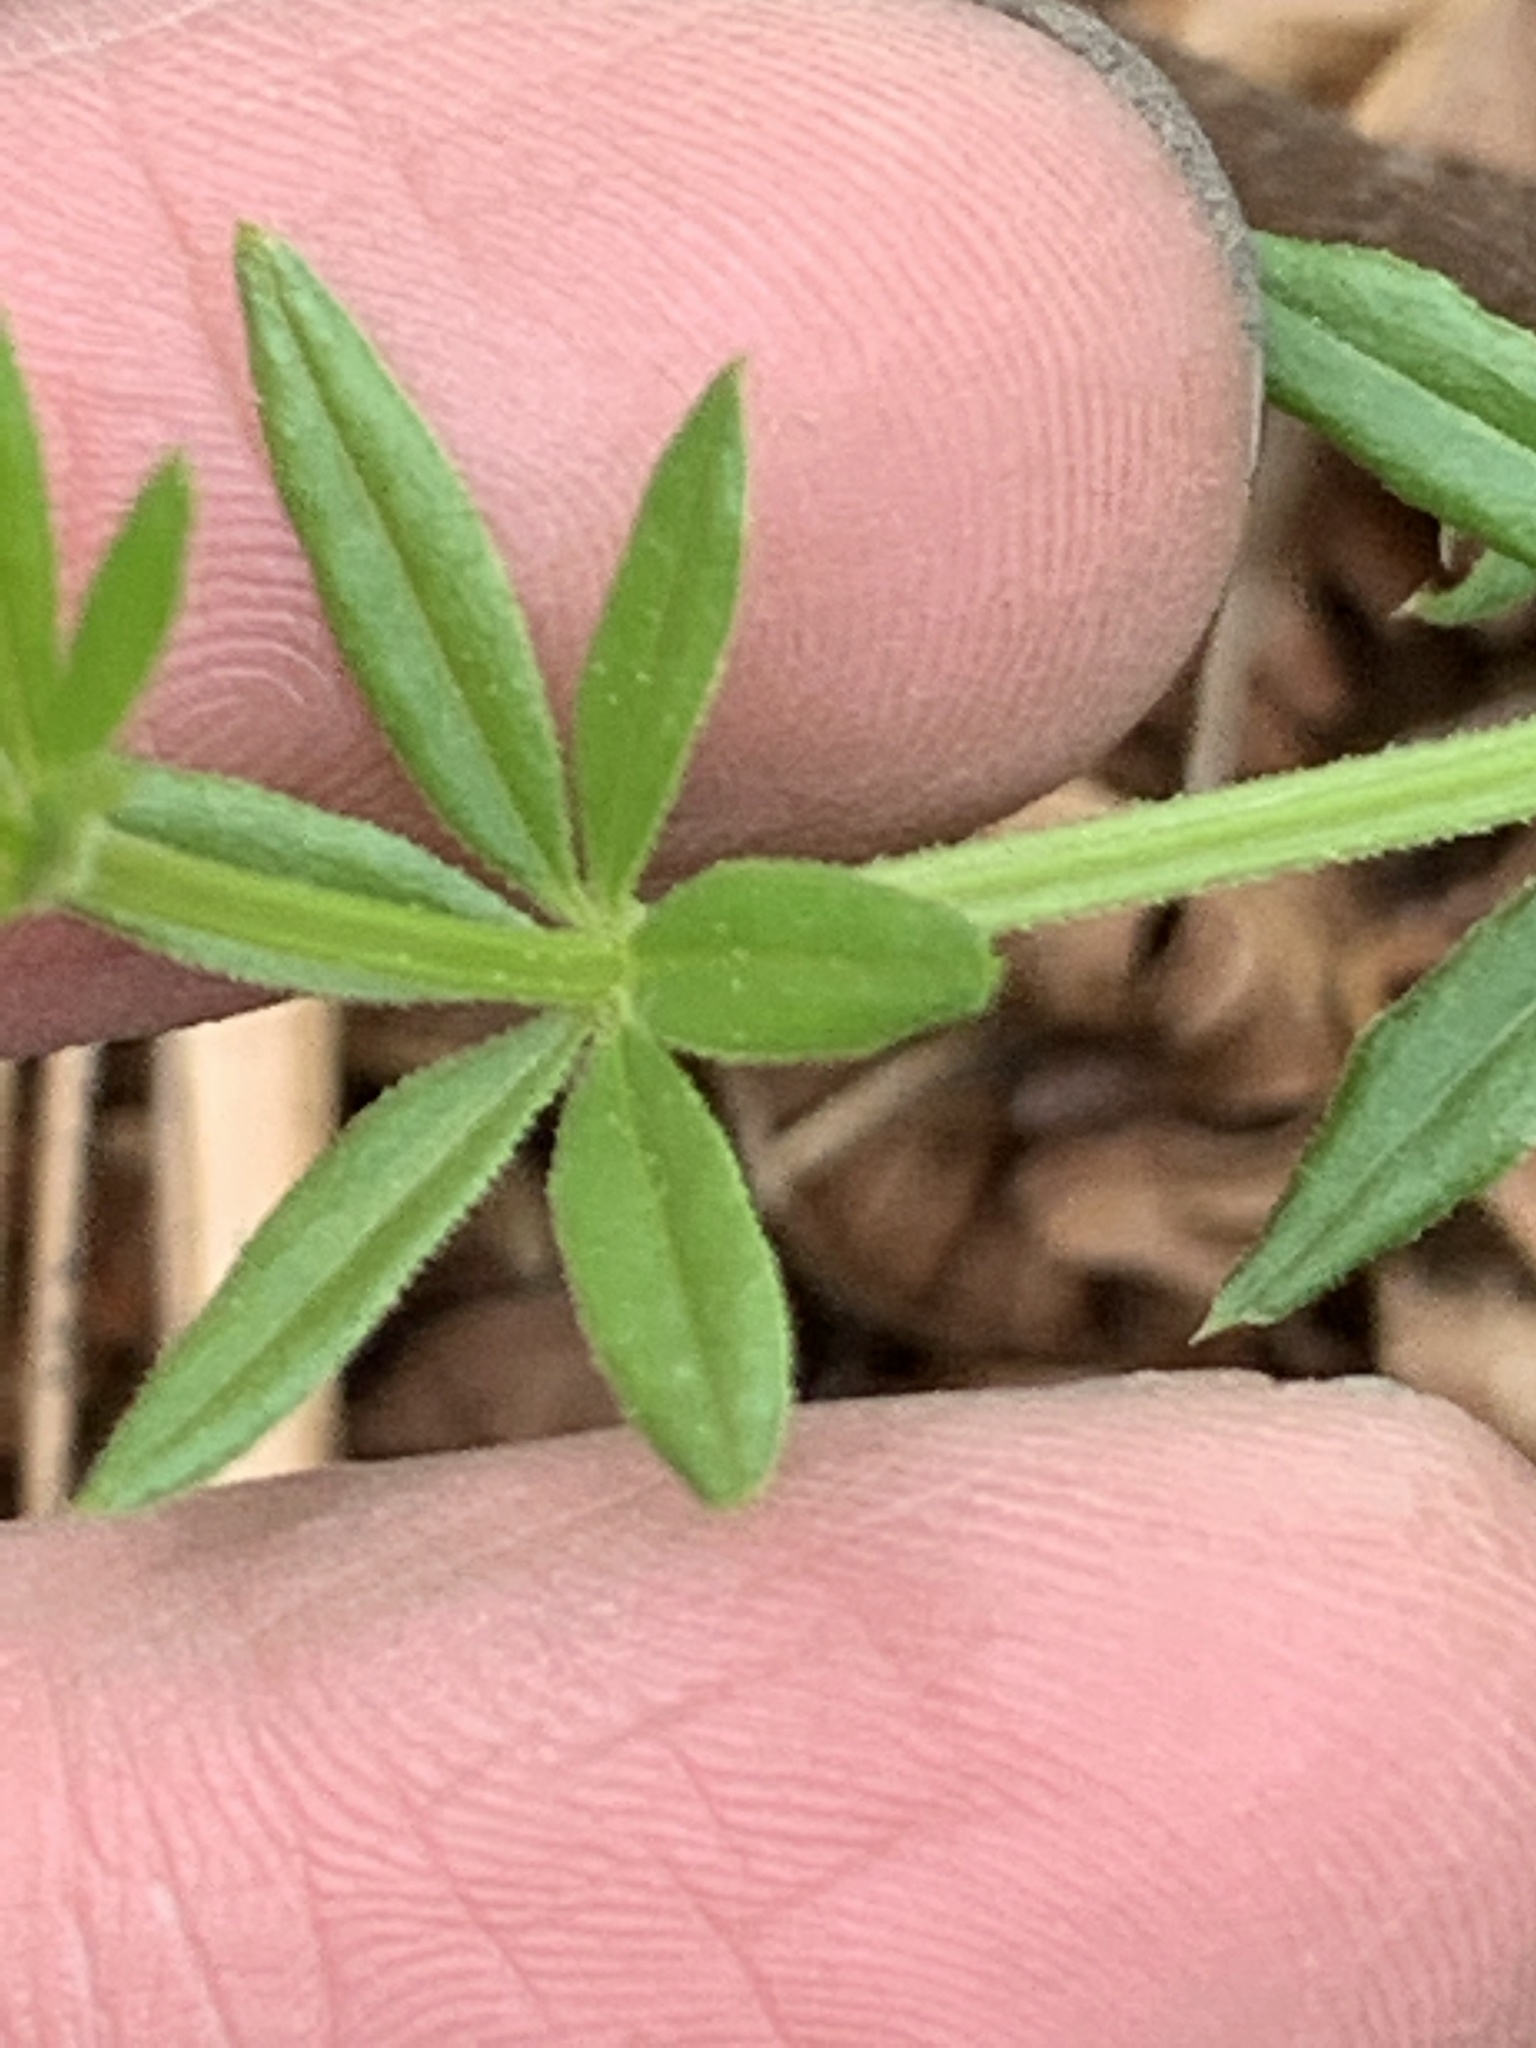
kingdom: Plantae
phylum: Tracheophyta
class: Magnoliopsida
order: Gentianales
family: Rubiaceae
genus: Galium
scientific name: Galium asprellum
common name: Rough bedstraw
